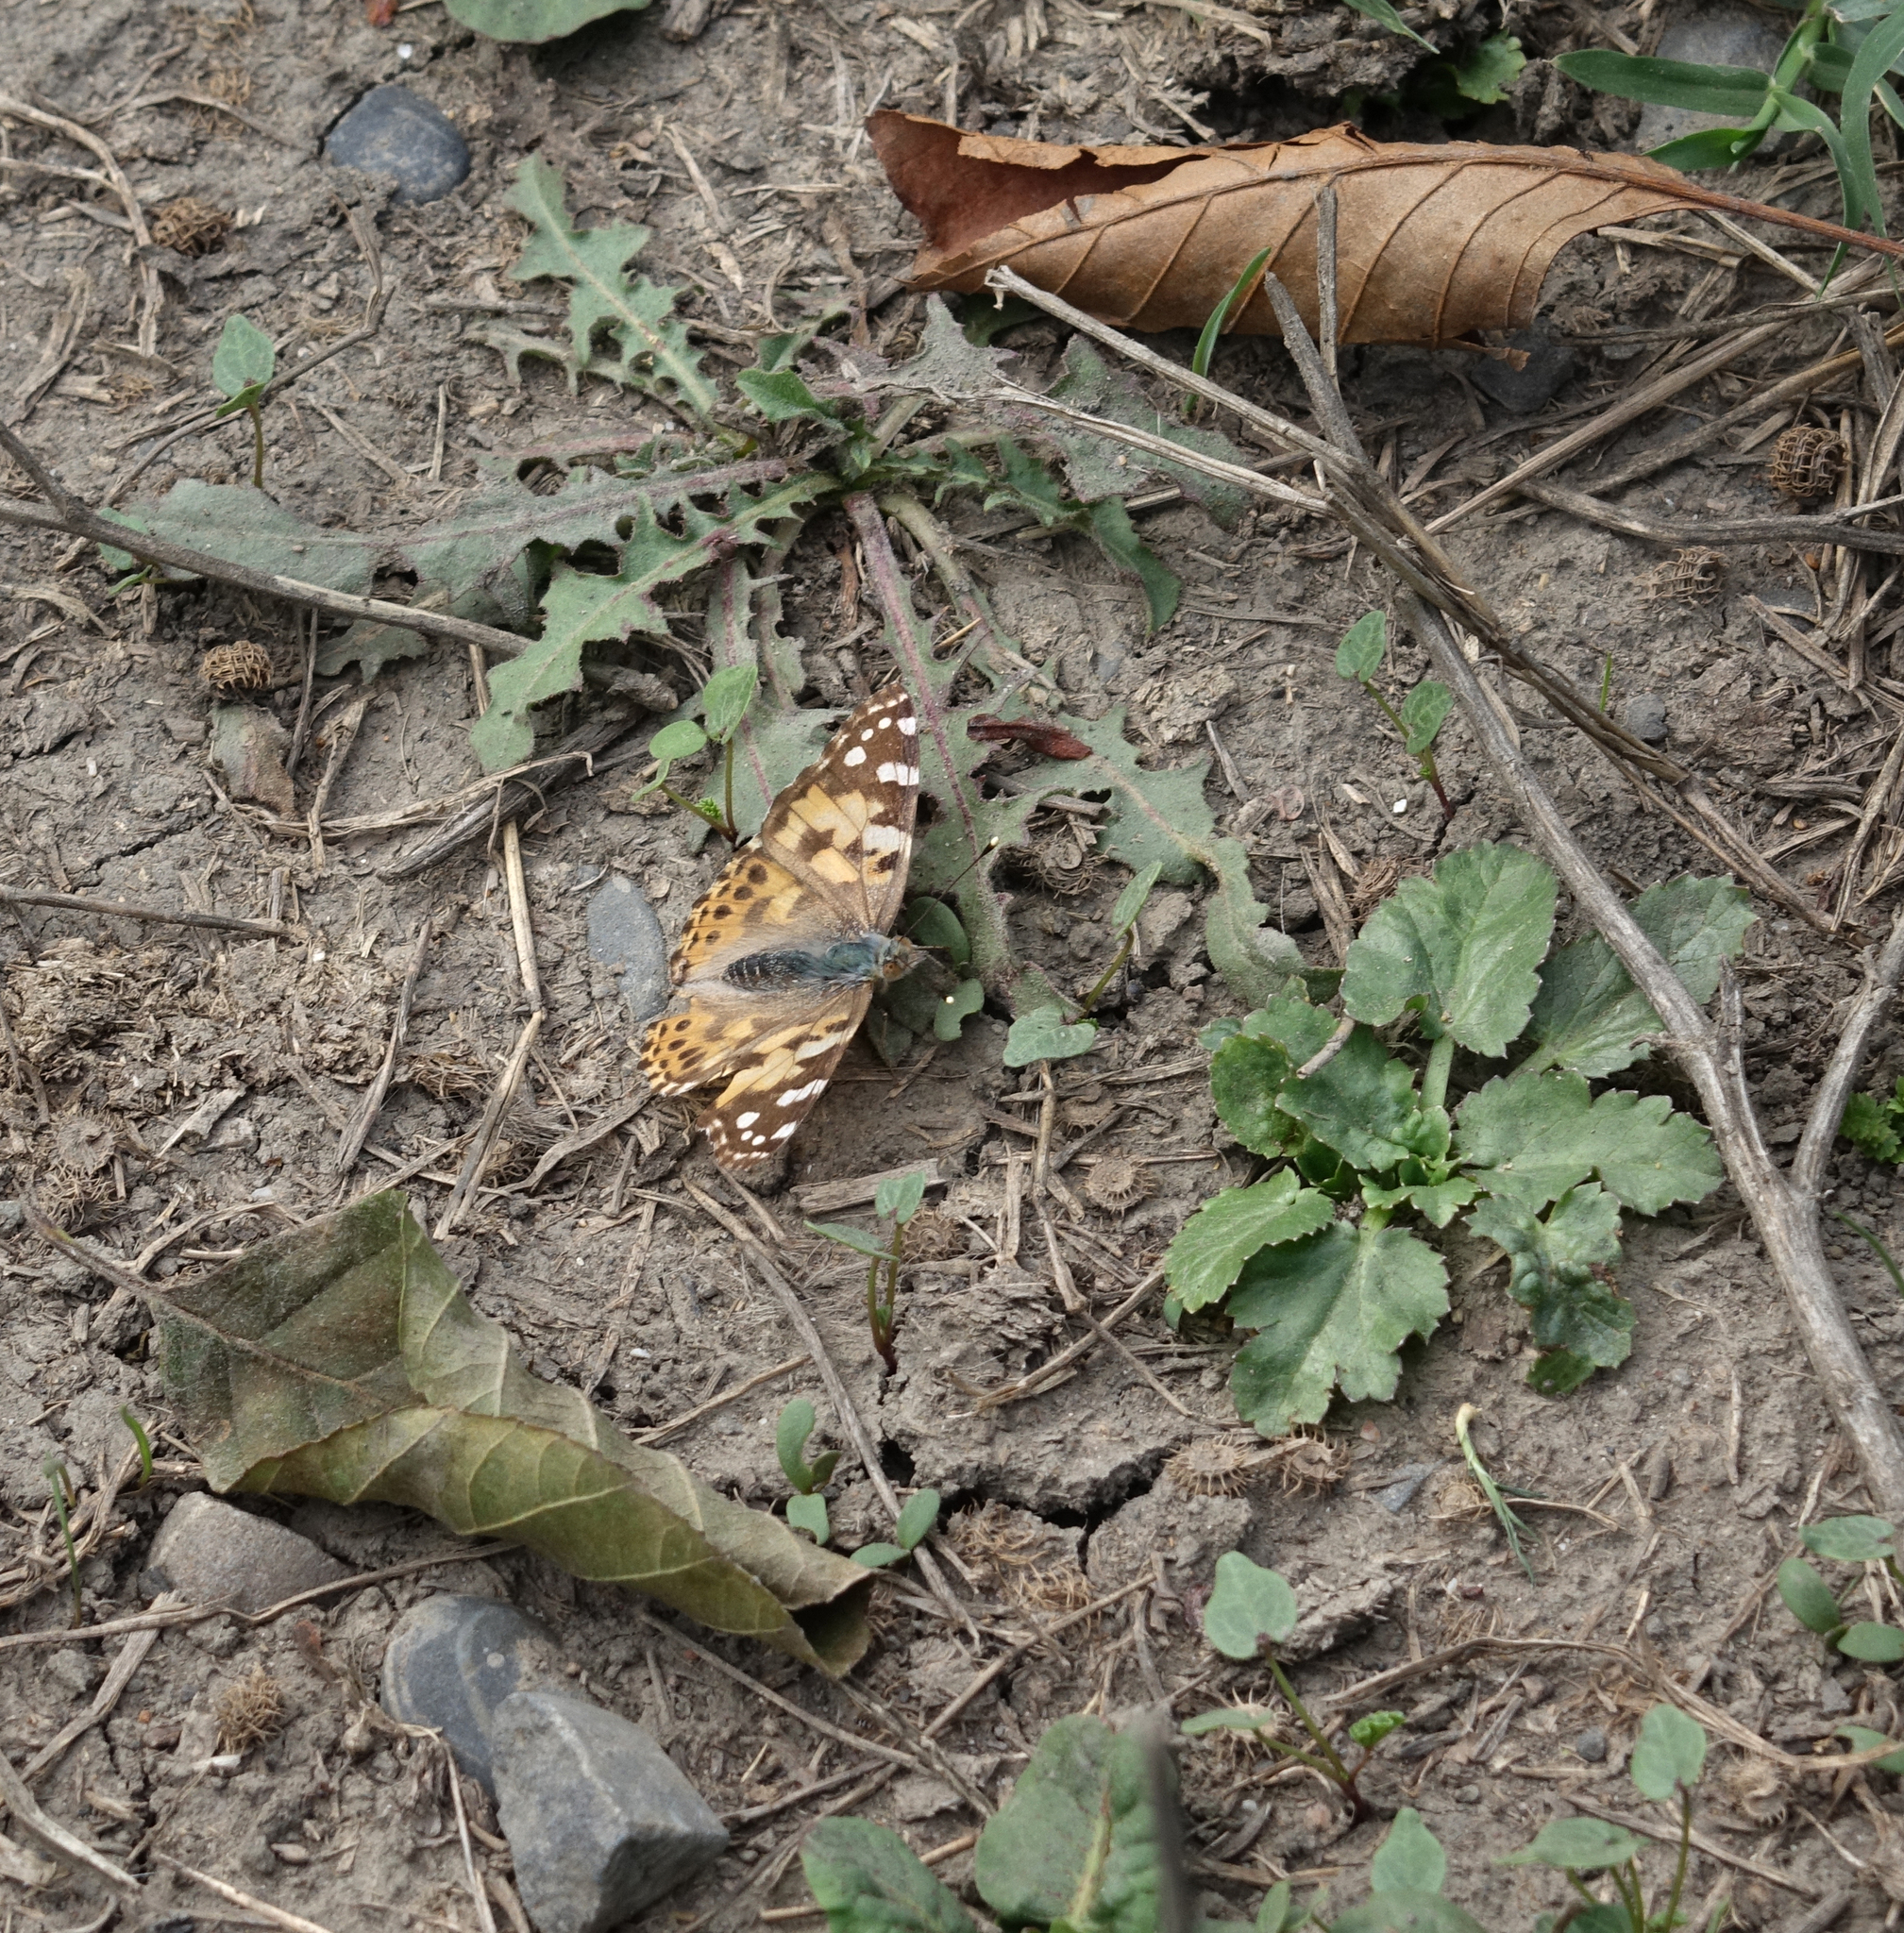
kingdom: Animalia
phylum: Arthropoda
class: Insecta
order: Lepidoptera
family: Nymphalidae
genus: Vanessa
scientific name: Vanessa cardui
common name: Painted lady
